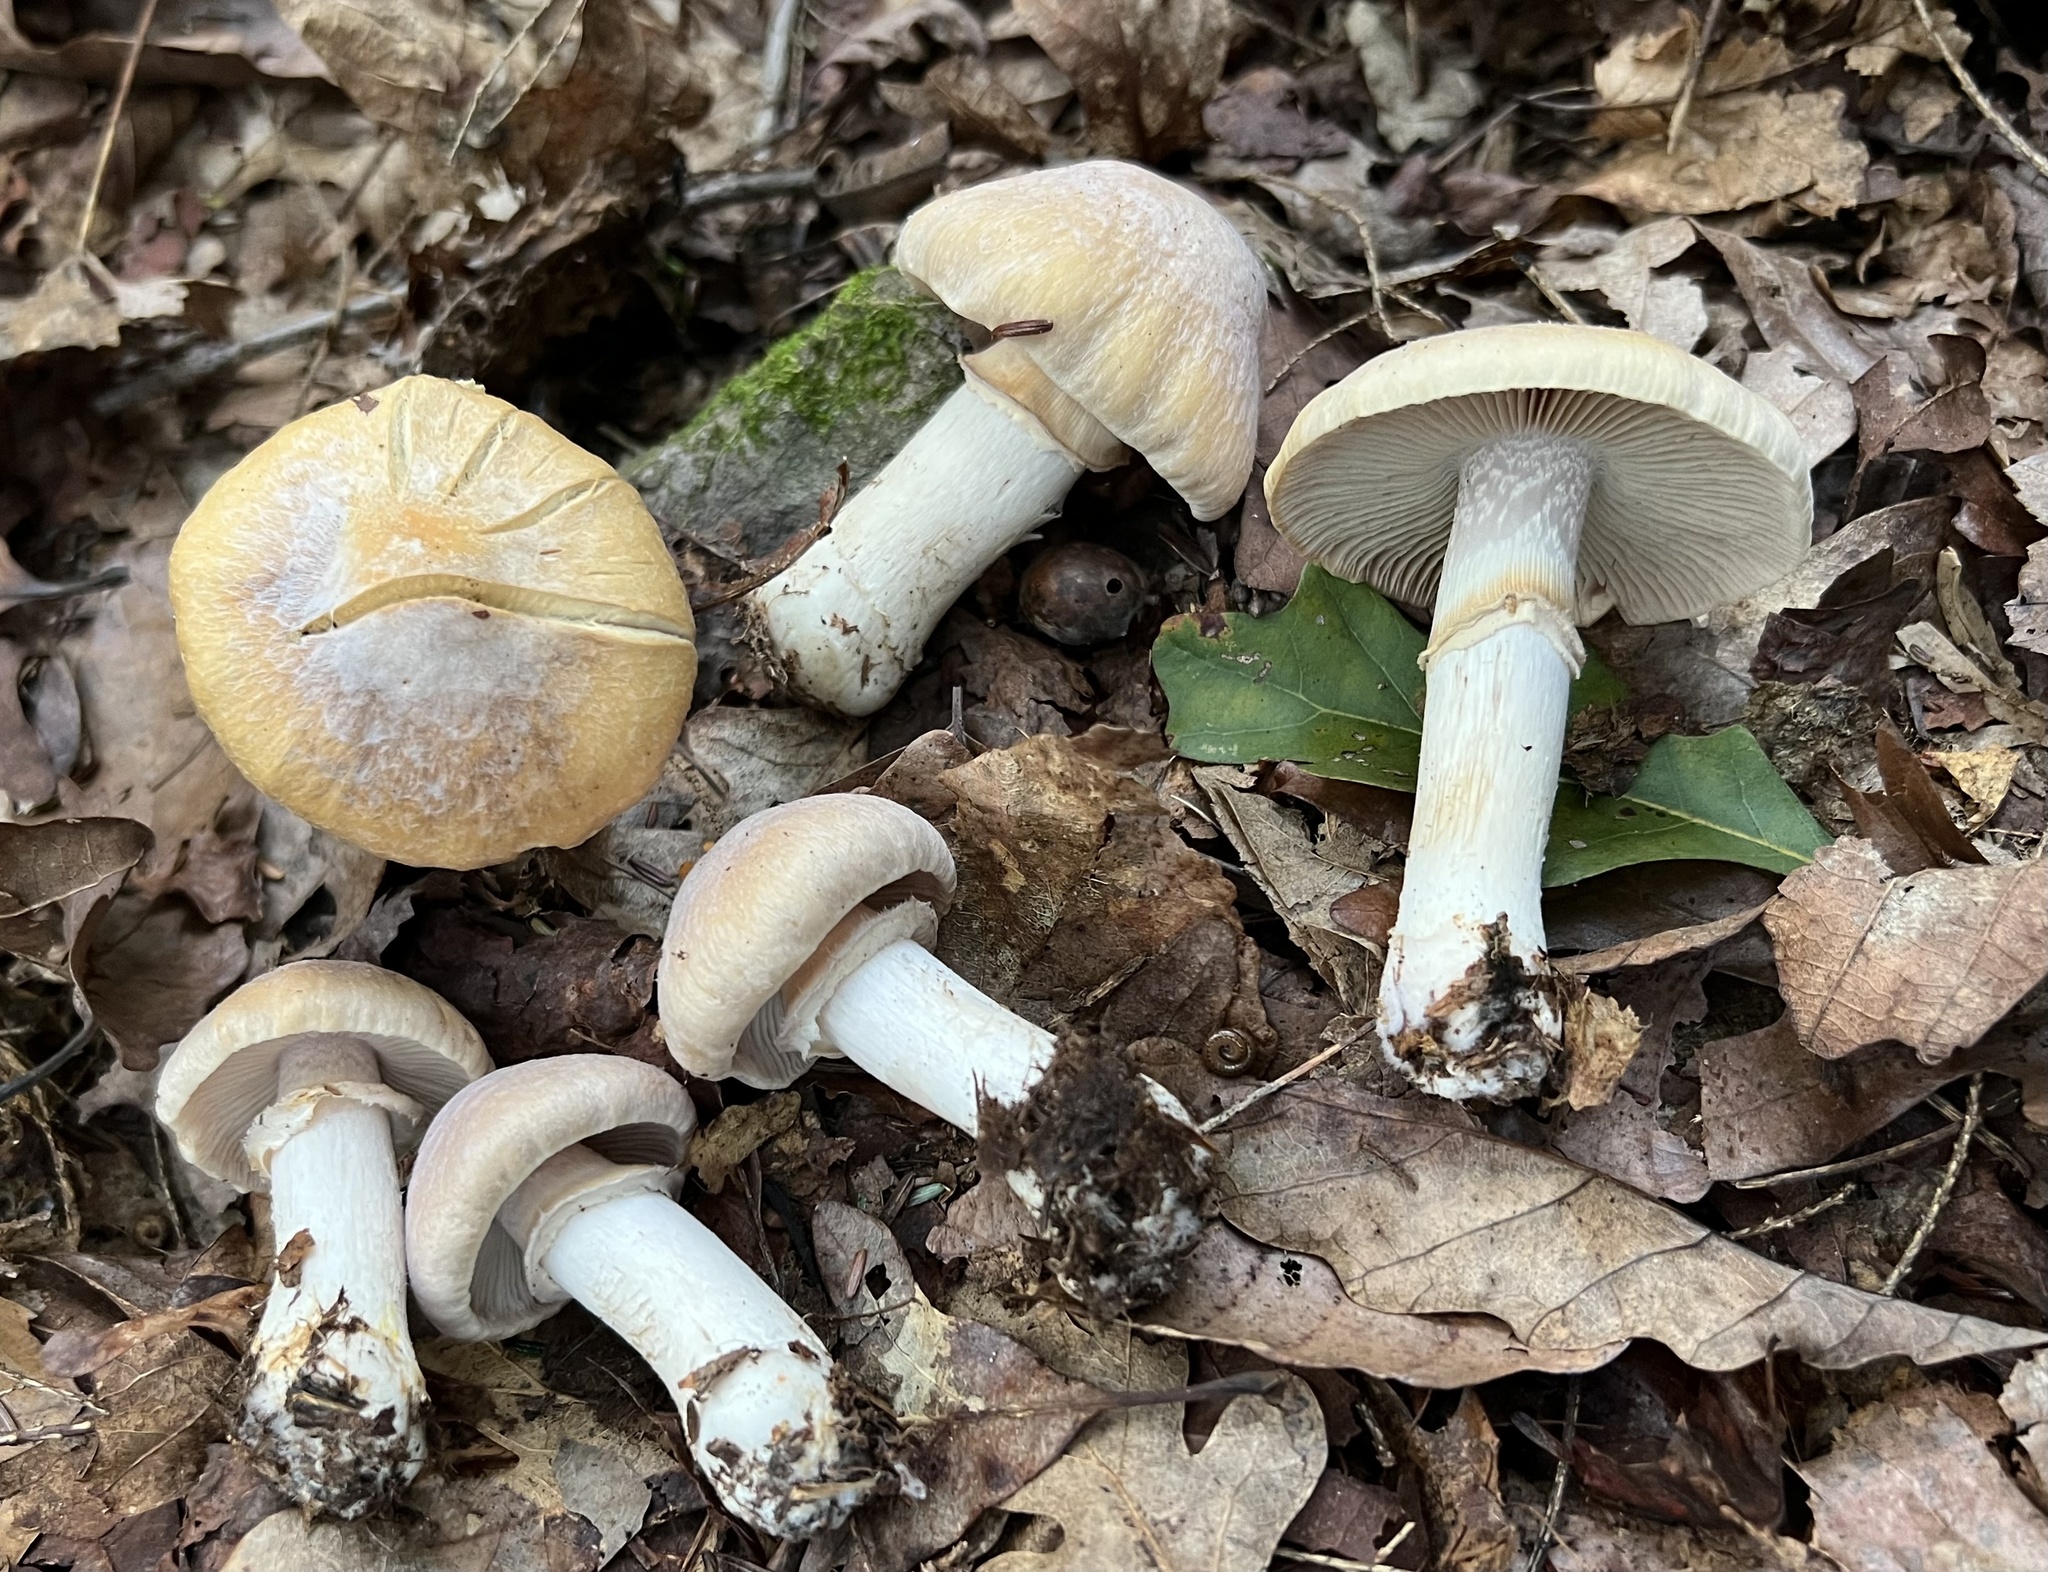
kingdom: Fungi
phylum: Basidiomycota
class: Agaricomycetes
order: Agaricales
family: Cortinariaceae
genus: Cortinarius
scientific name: Cortinarius caperatus
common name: The gypsy
